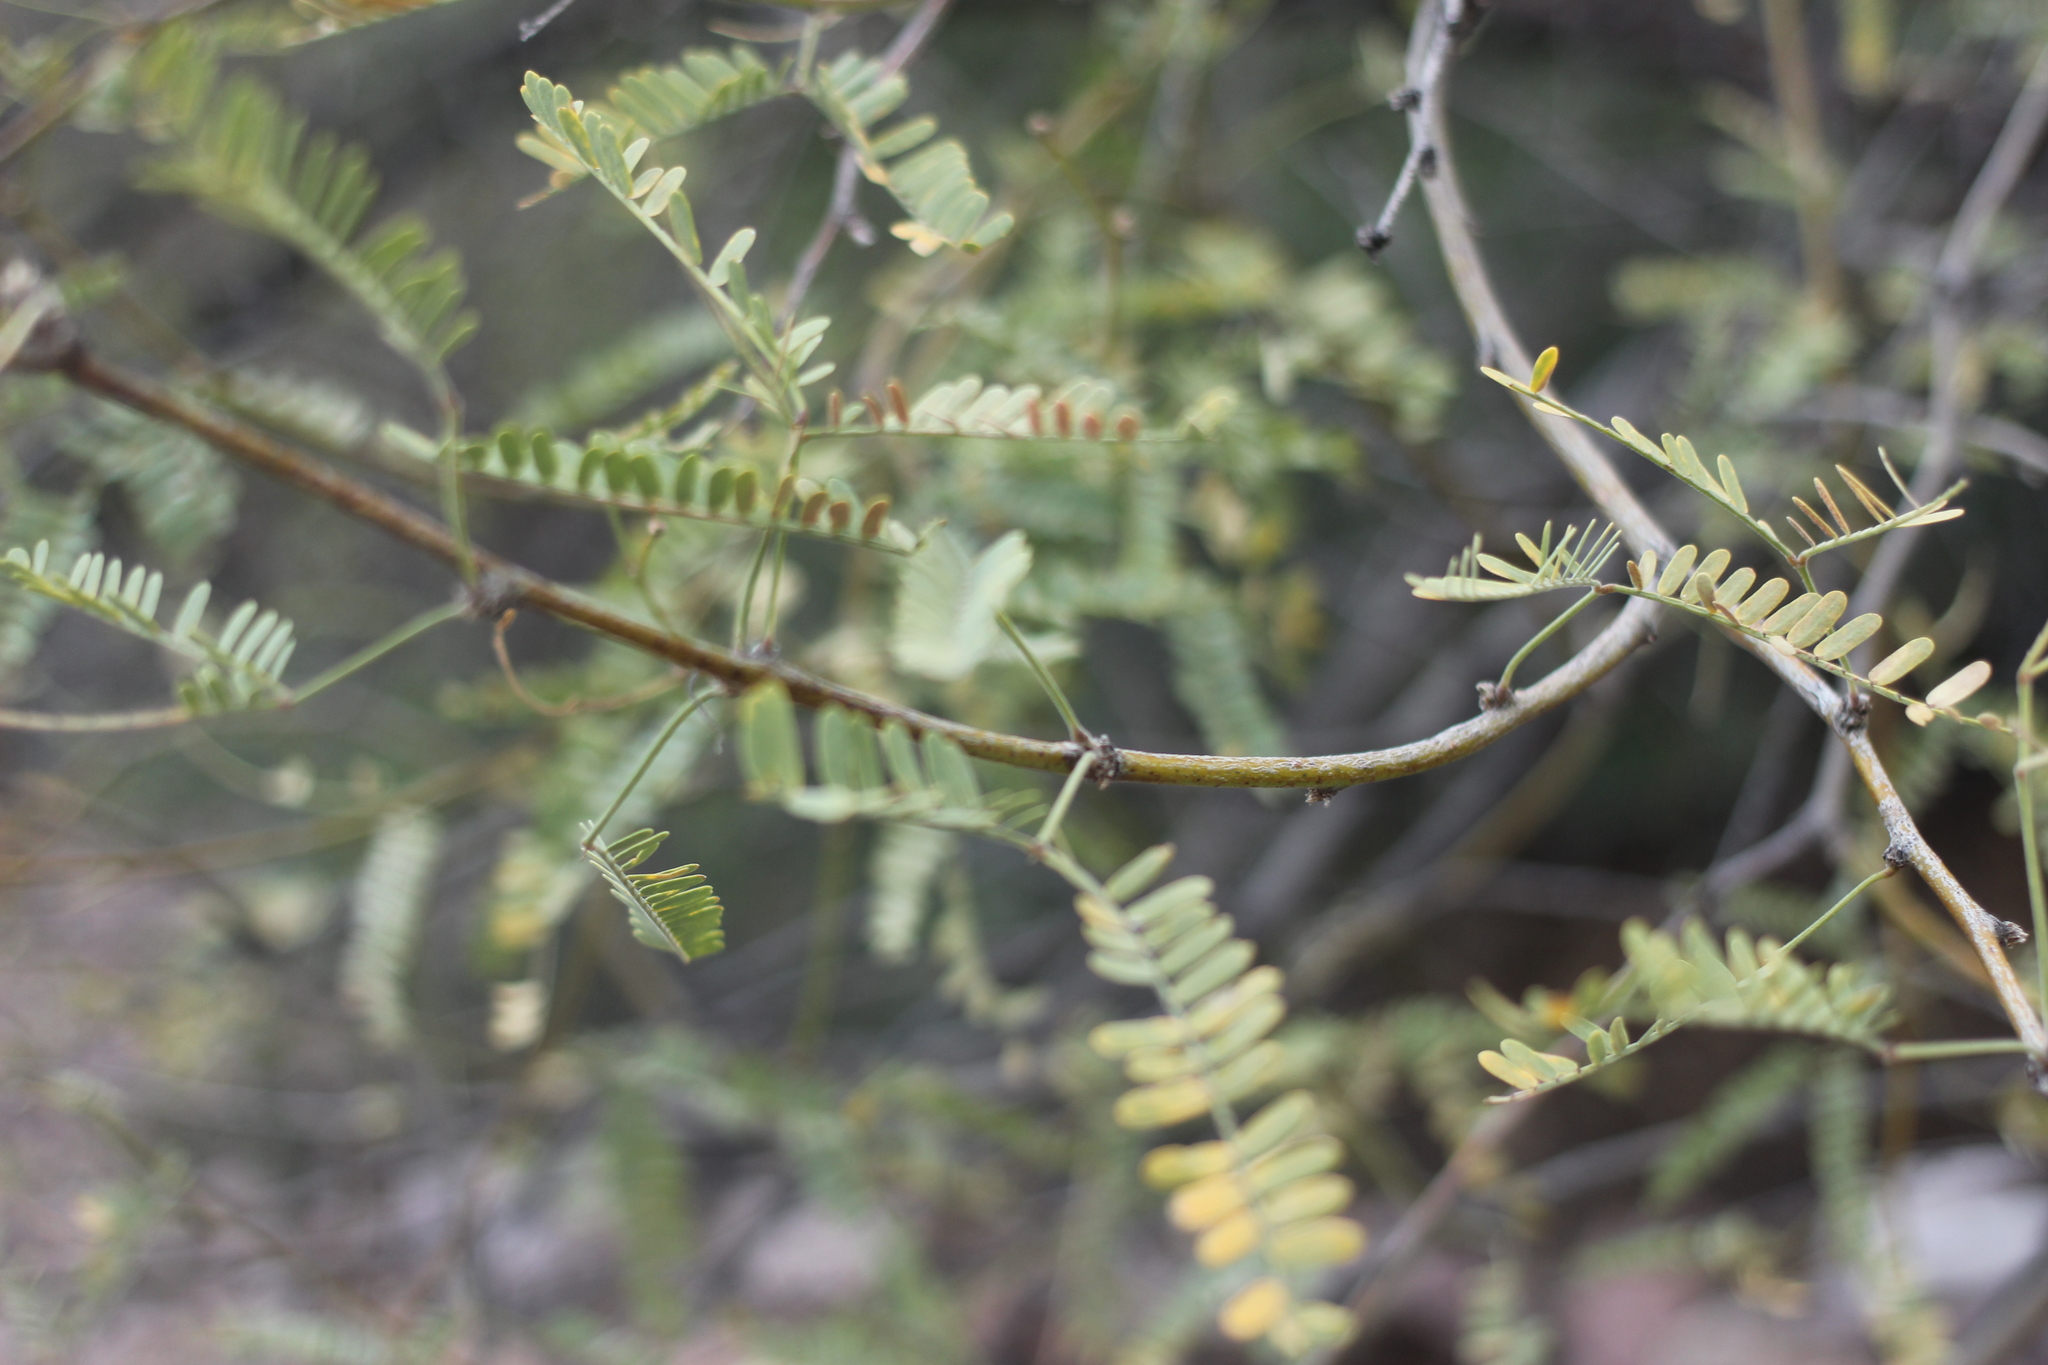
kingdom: Plantae
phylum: Tracheophyta
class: Magnoliopsida
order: Fabales
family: Fabaceae
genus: Prosopis
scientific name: Prosopis velutina
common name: Velvet mesquite
